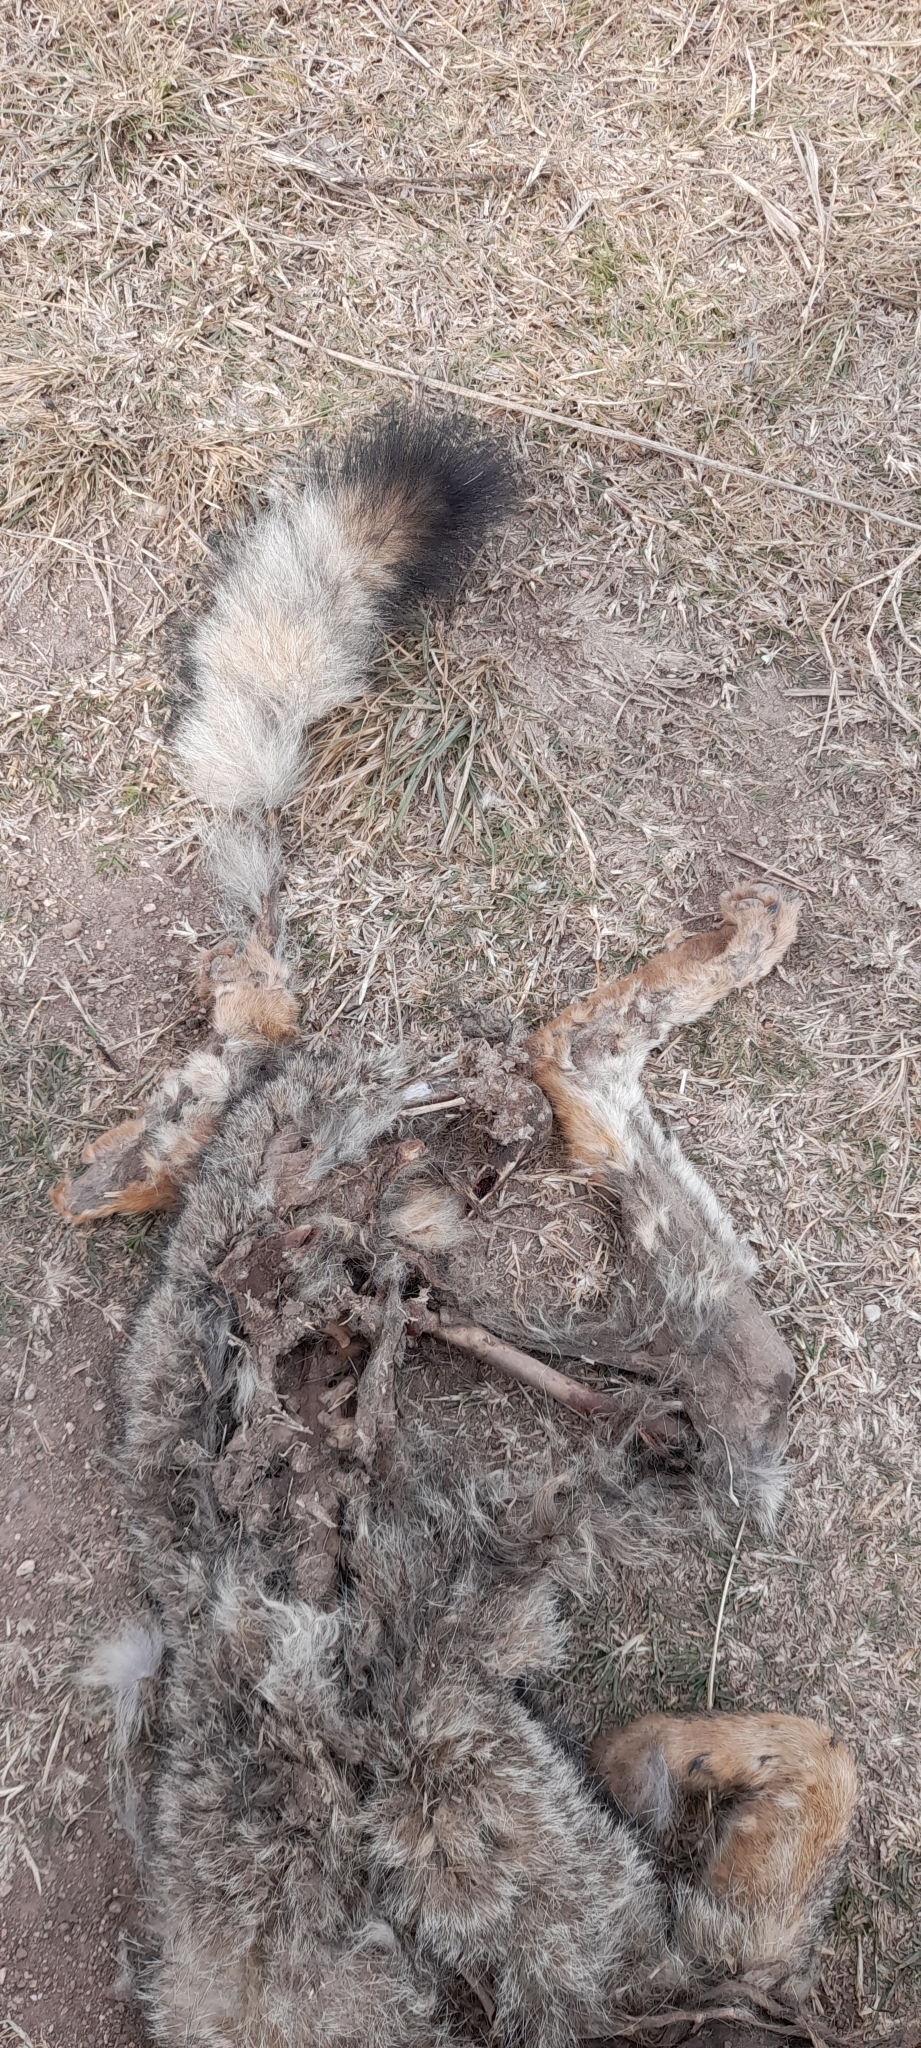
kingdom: Animalia
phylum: Chordata
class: Mammalia
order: Carnivora
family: Canidae
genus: Lycalopex
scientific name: Lycalopex gymnocercus
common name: Pampas fox
